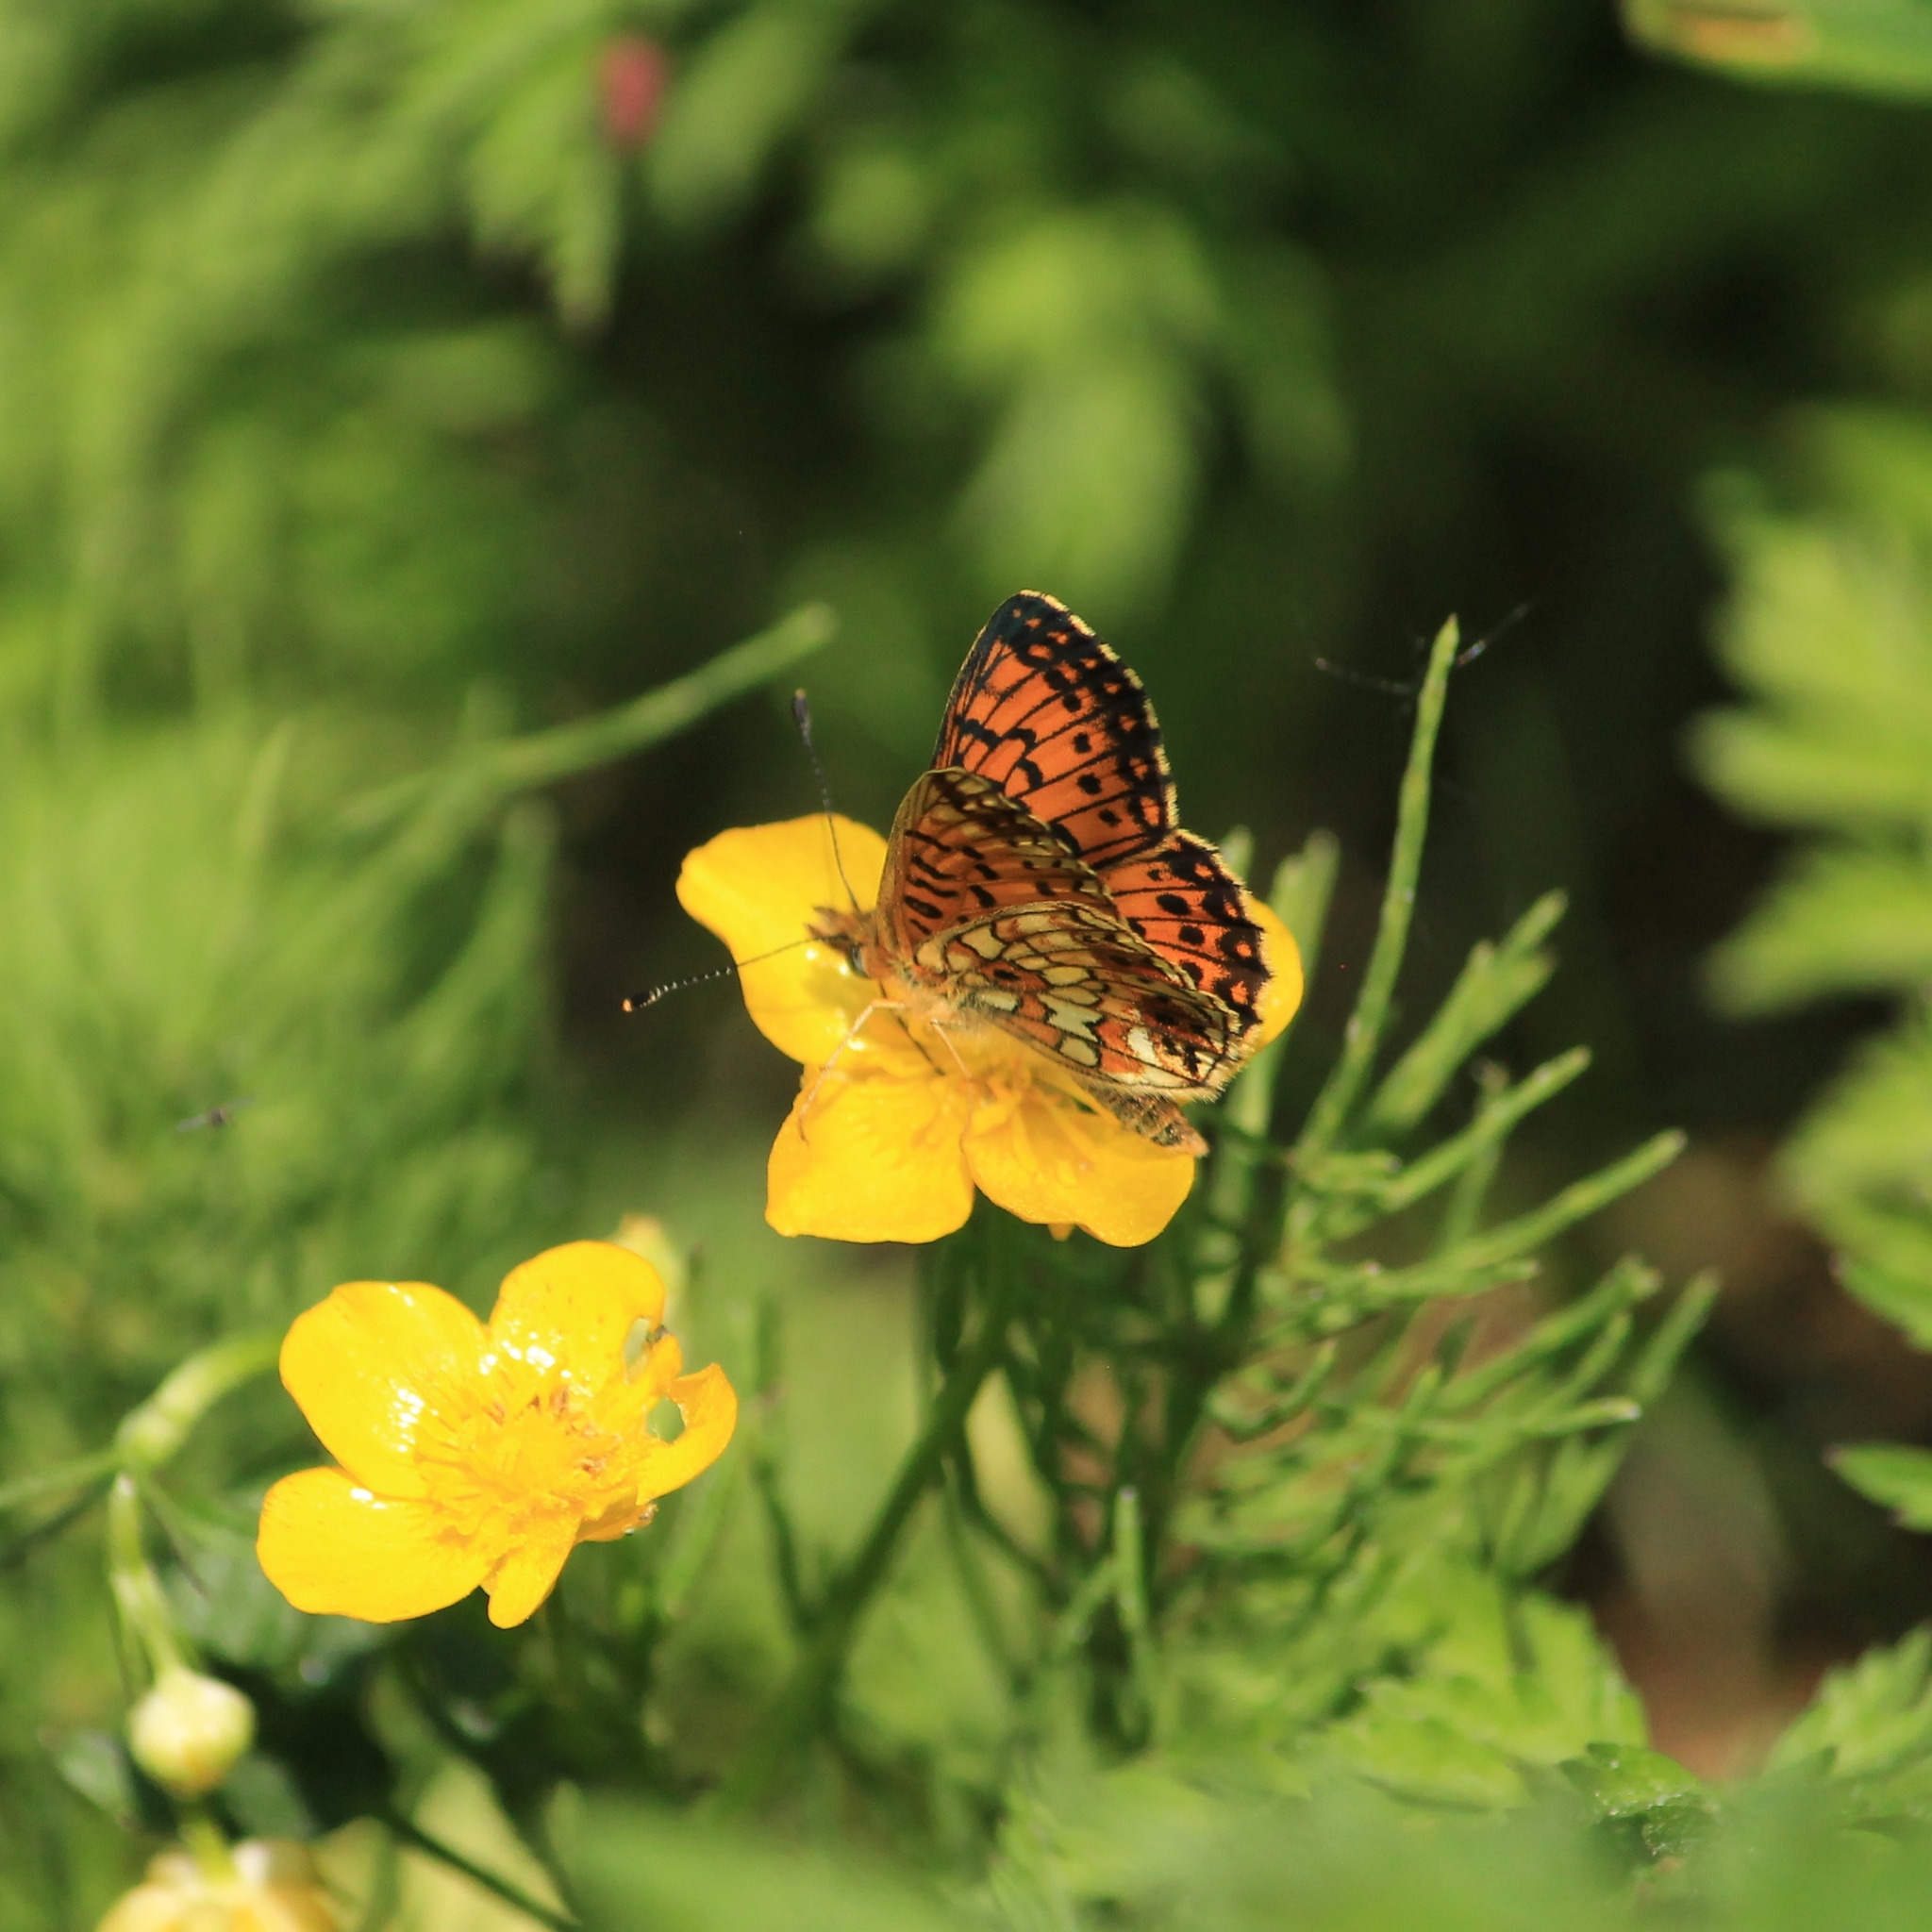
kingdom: Animalia
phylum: Arthropoda
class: Insecta
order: Lepidoptera
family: Nymphalidae
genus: Boloria
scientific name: Boloria selene
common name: Small pearl-bordered fritillary
